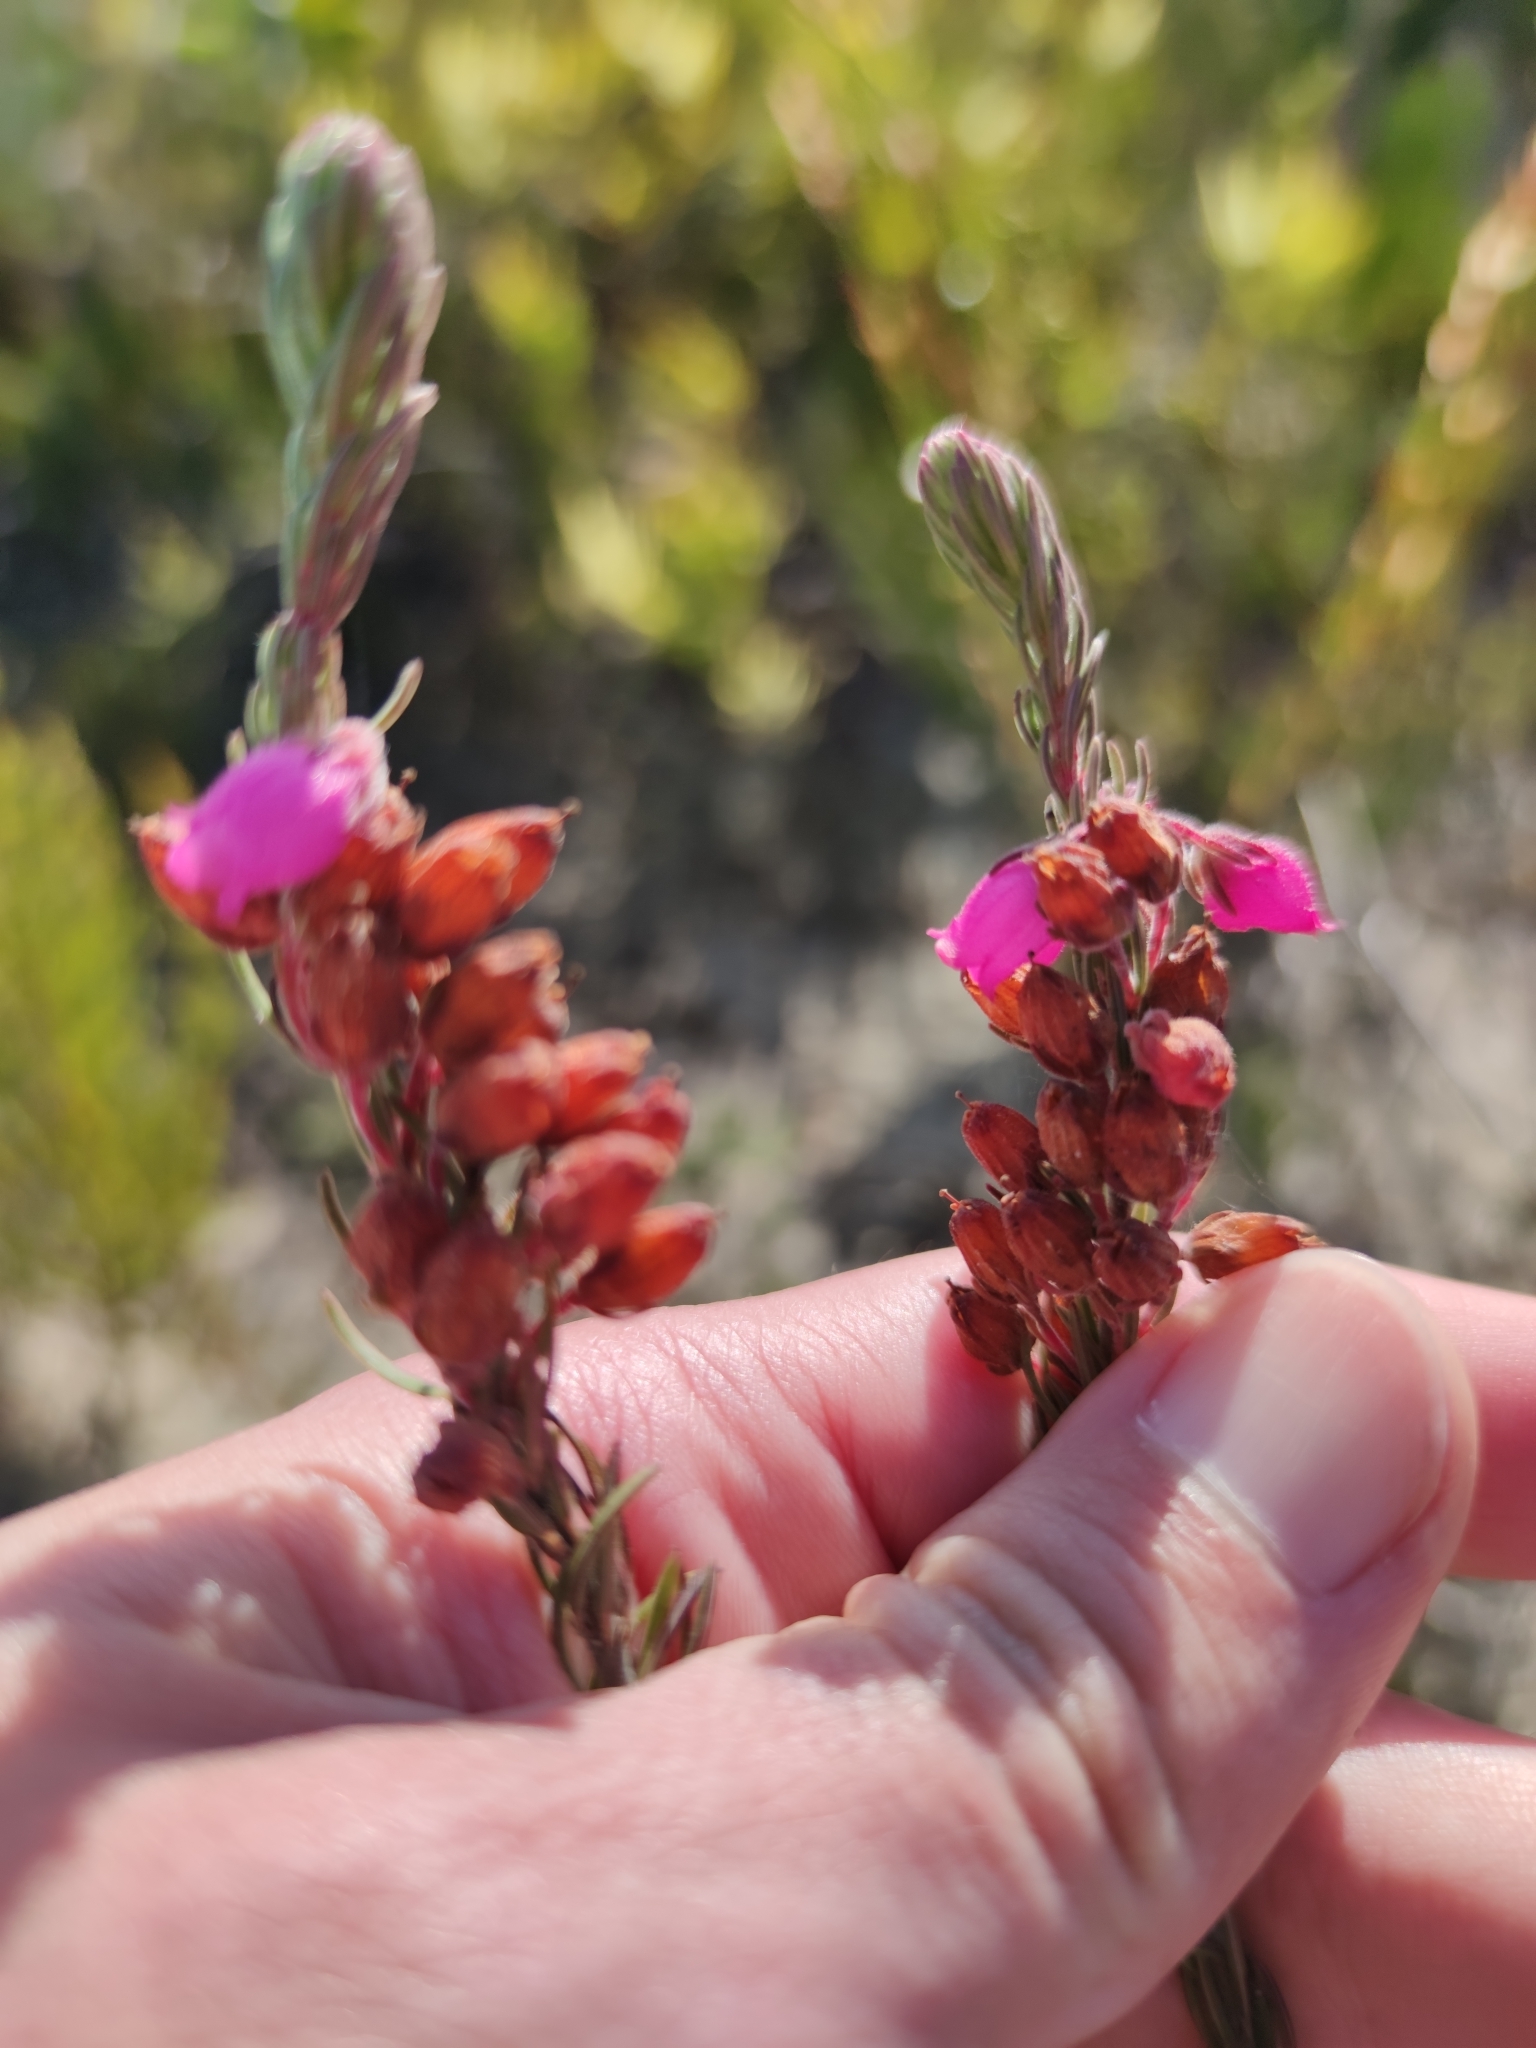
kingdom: Plantae
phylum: Tracheophyta
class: Magnoliopsida
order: Ericales
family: Ericaceae
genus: Erica
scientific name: Erica viscaria
